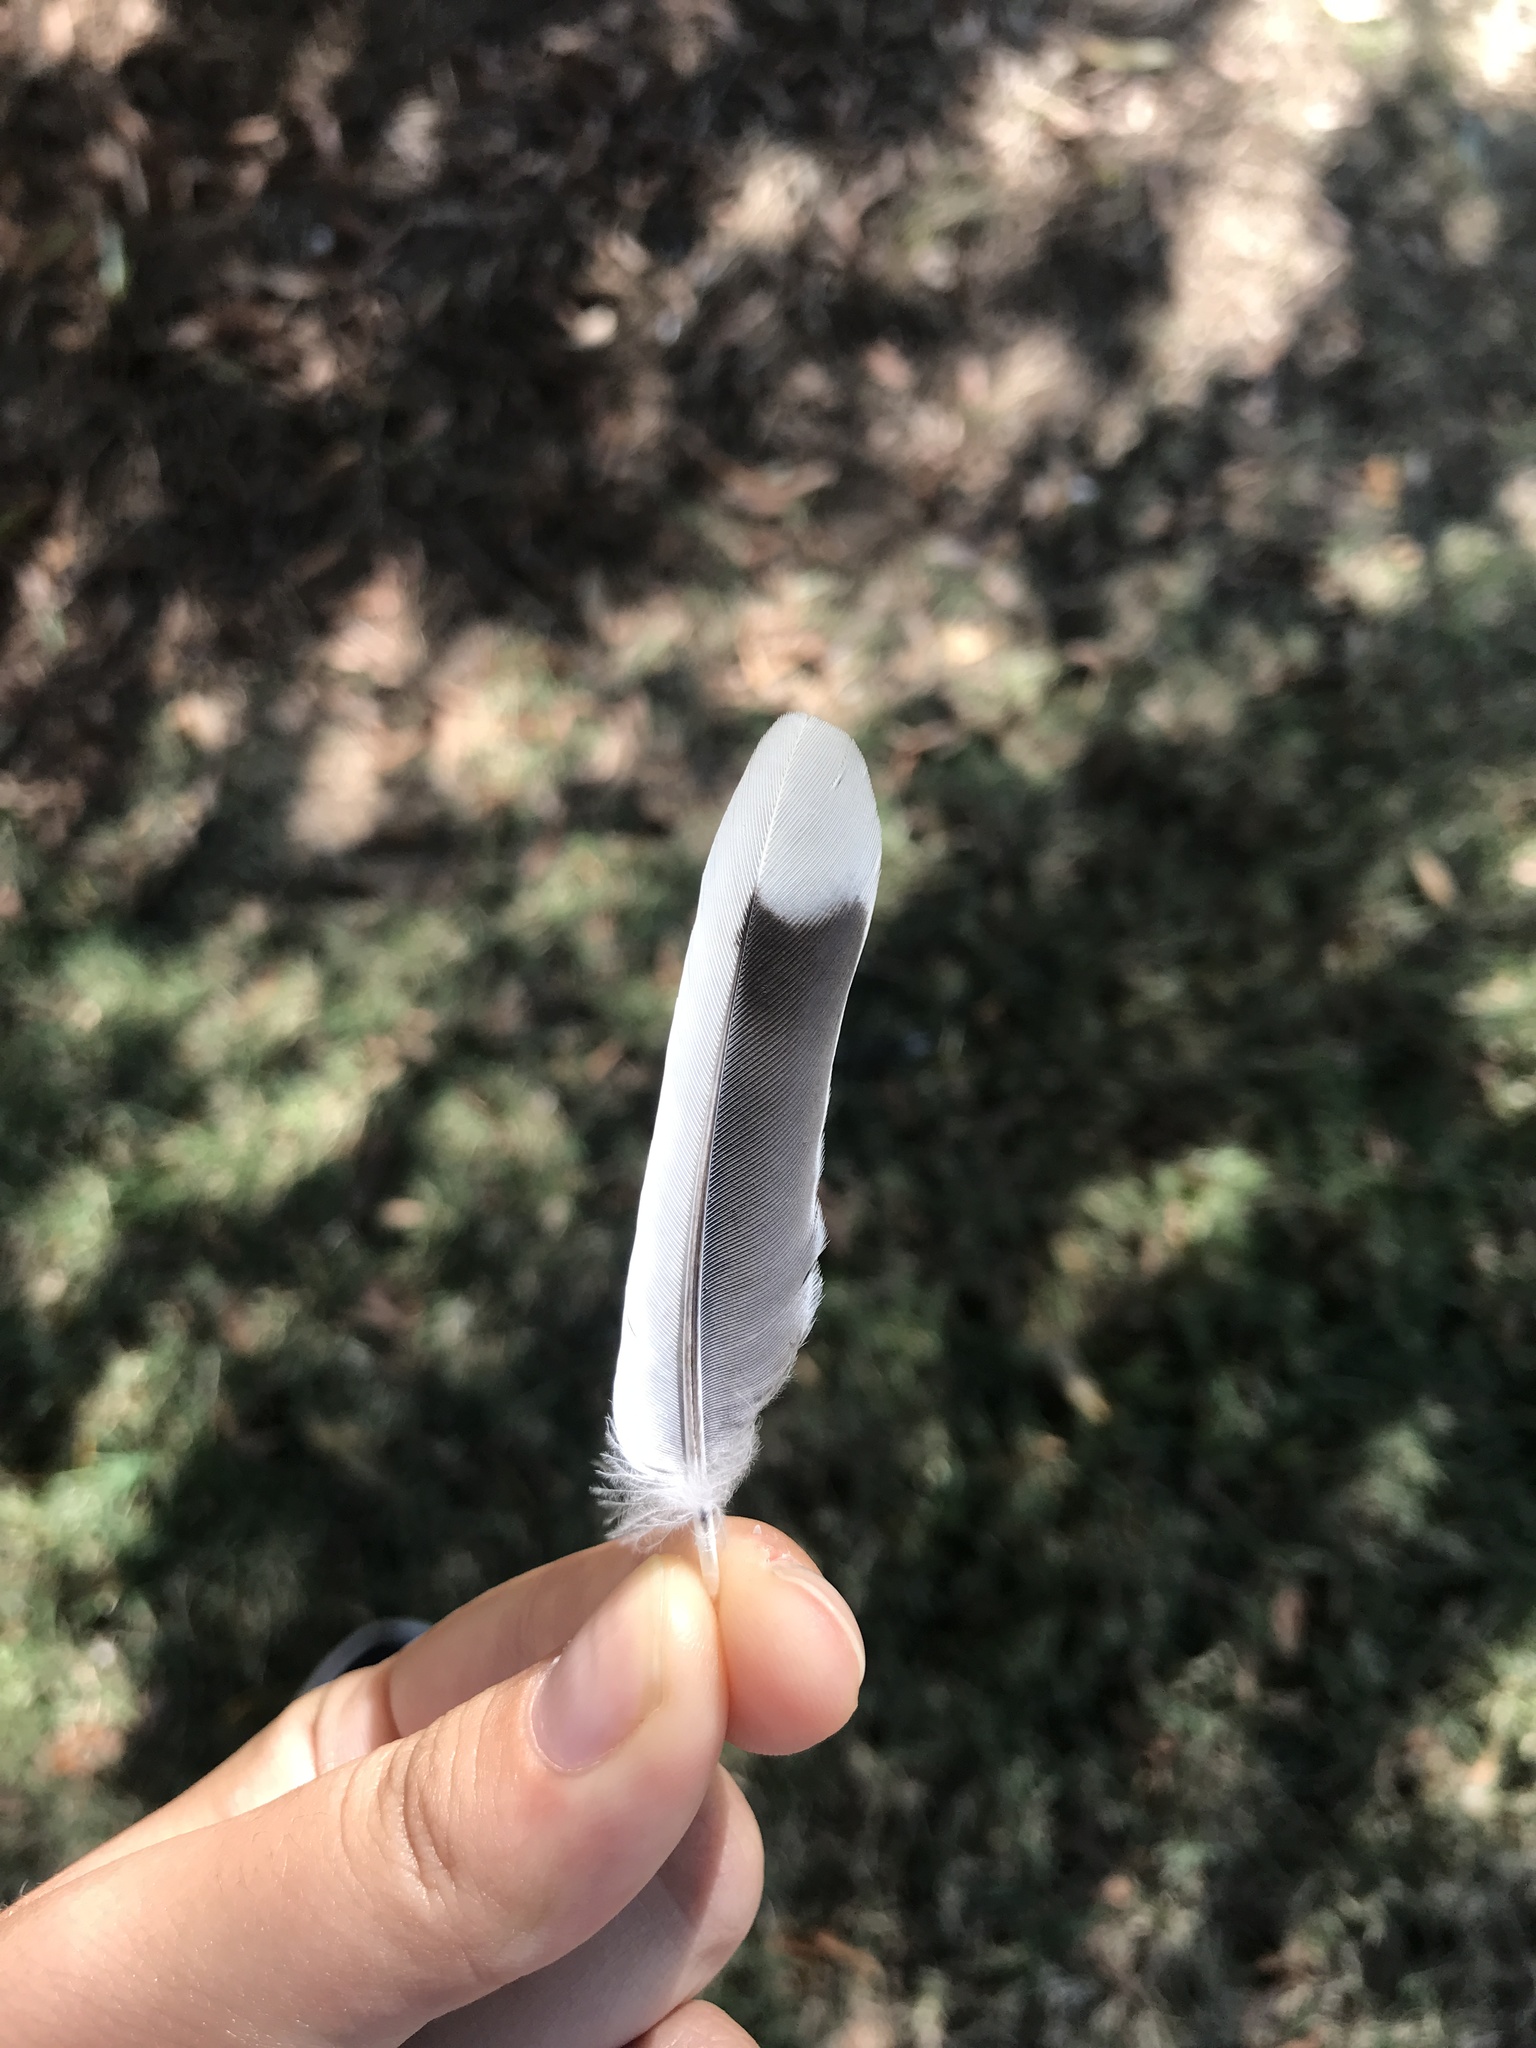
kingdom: Animalia
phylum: Chordata
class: Aves
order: Columbiformes
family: Columbidae
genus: Zenaida
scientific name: Zenaida macroura
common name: Mourning dove
